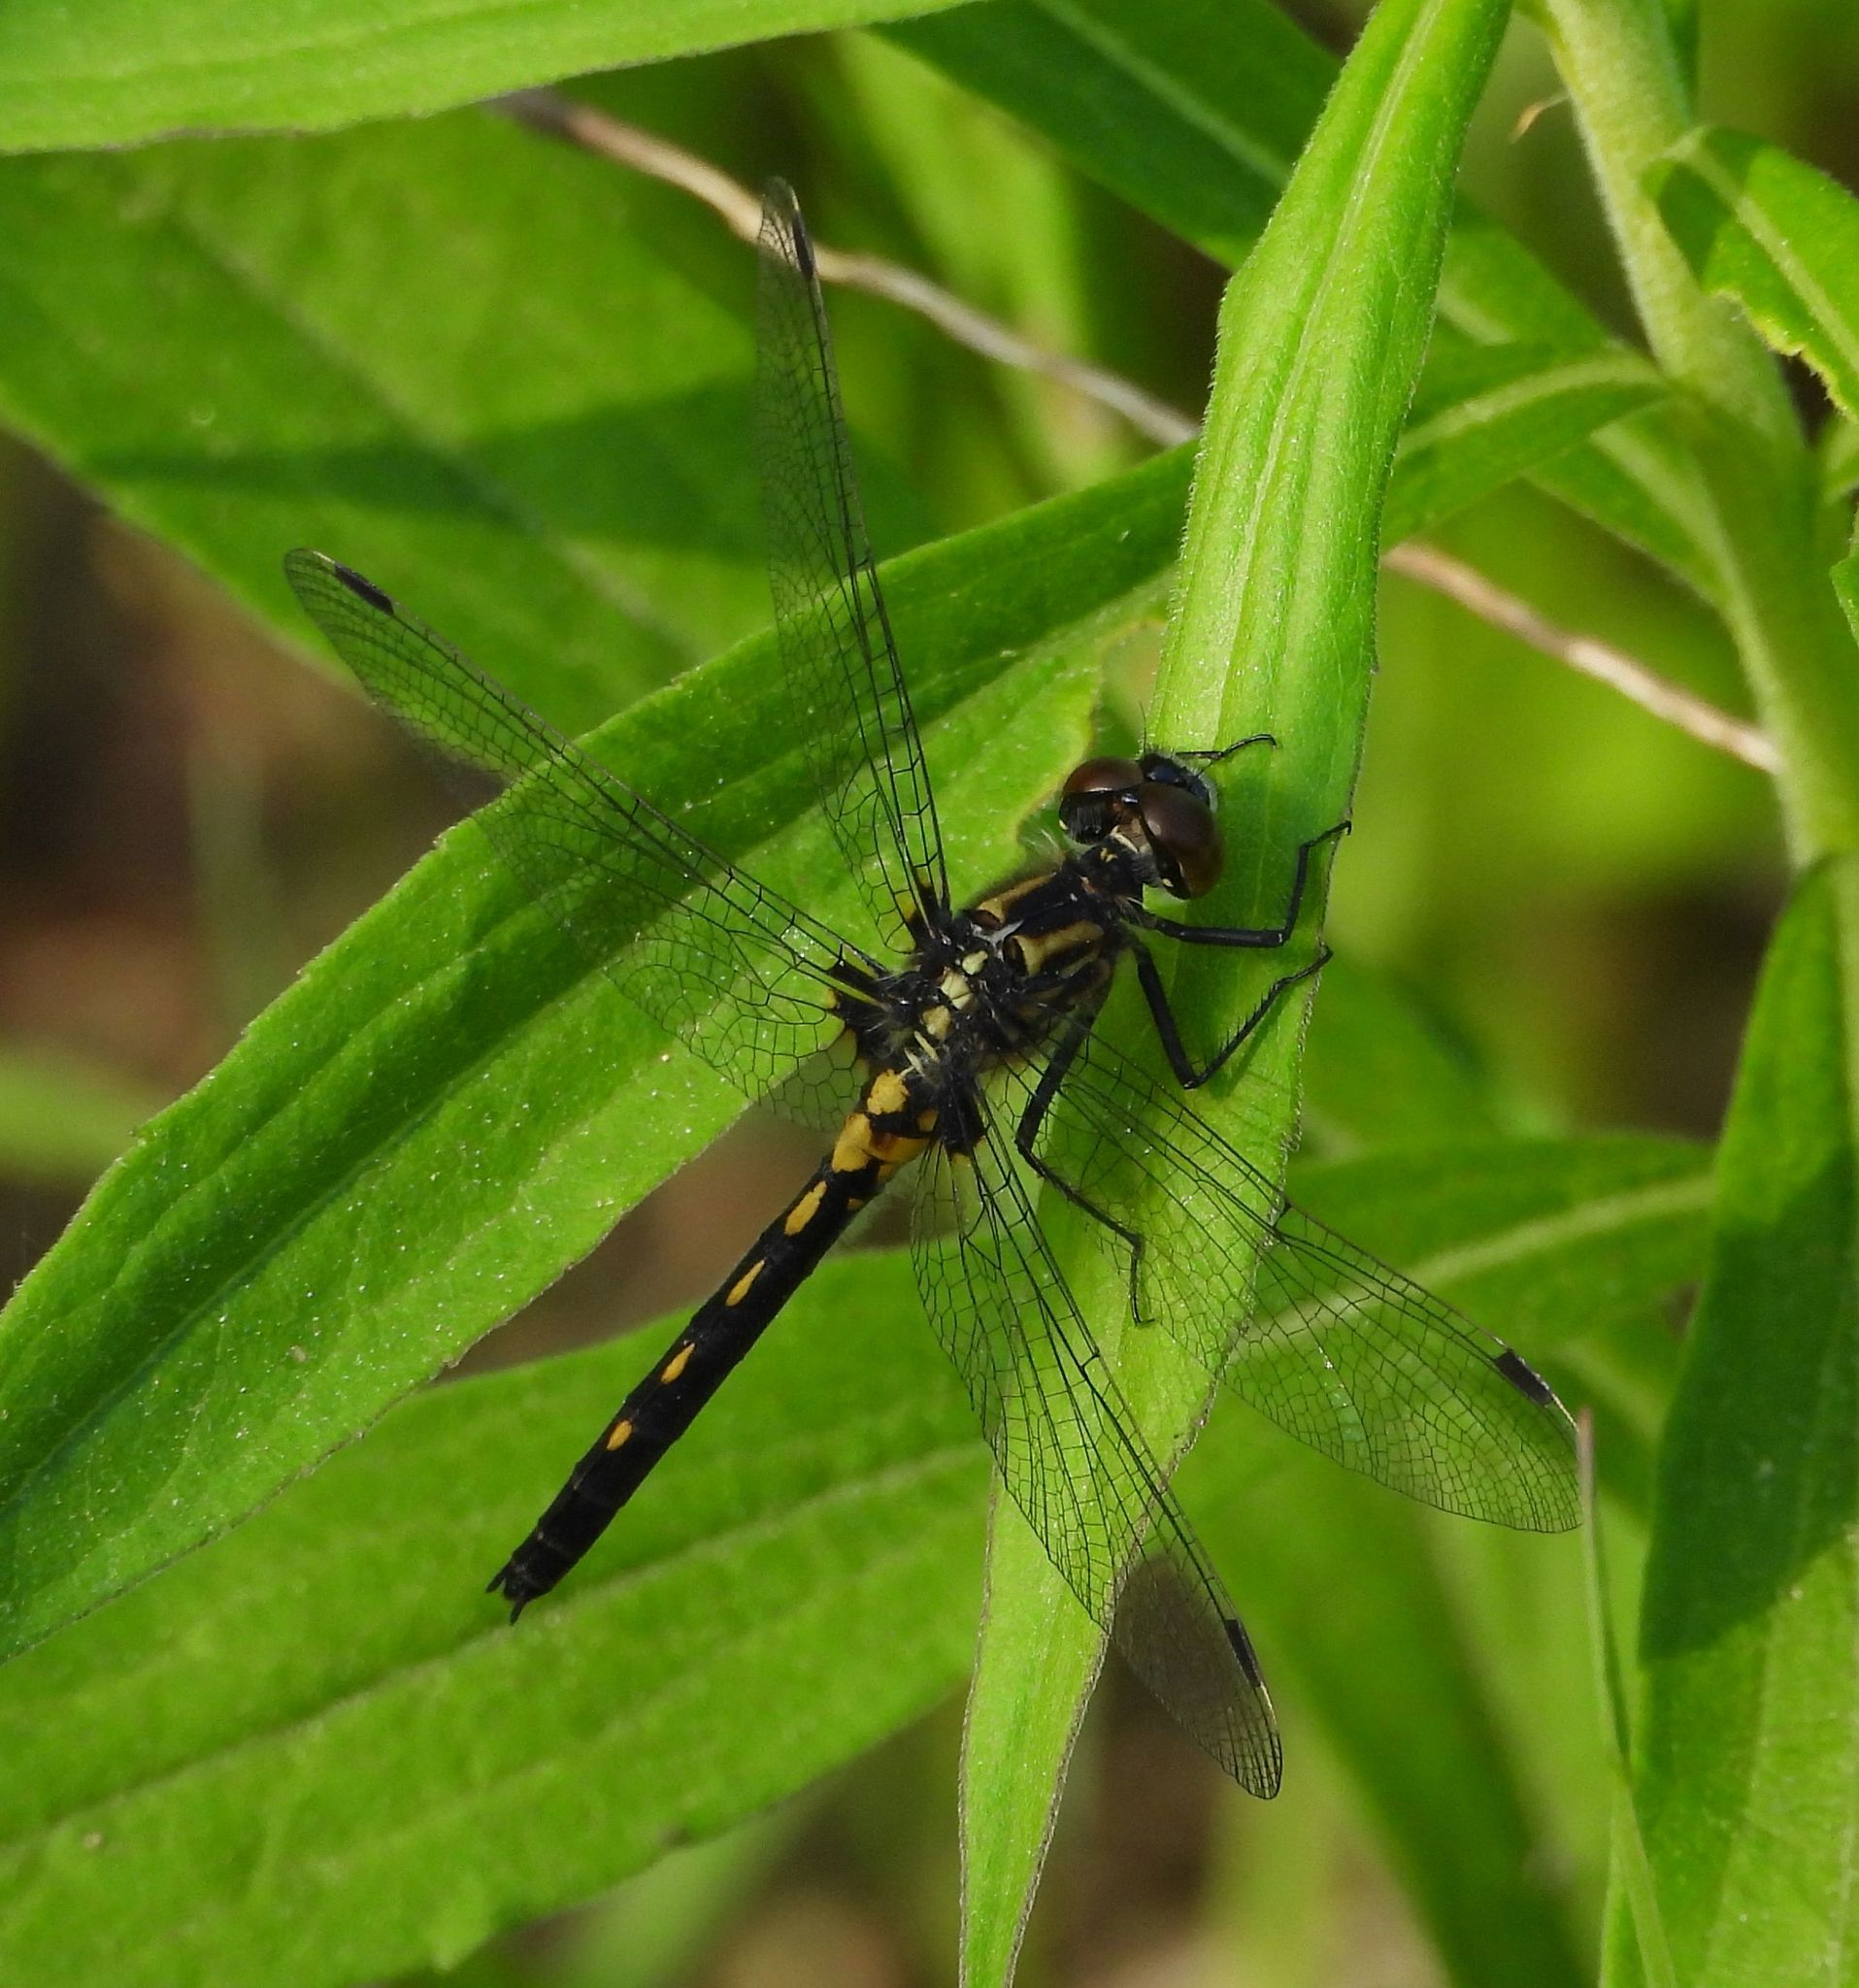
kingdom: Animalia
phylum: Arthropoda
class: Insecta
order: Odonata
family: Libellulidae
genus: Leucorrhinia
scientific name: Leucorrhinia proxima
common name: Belted whiteface
